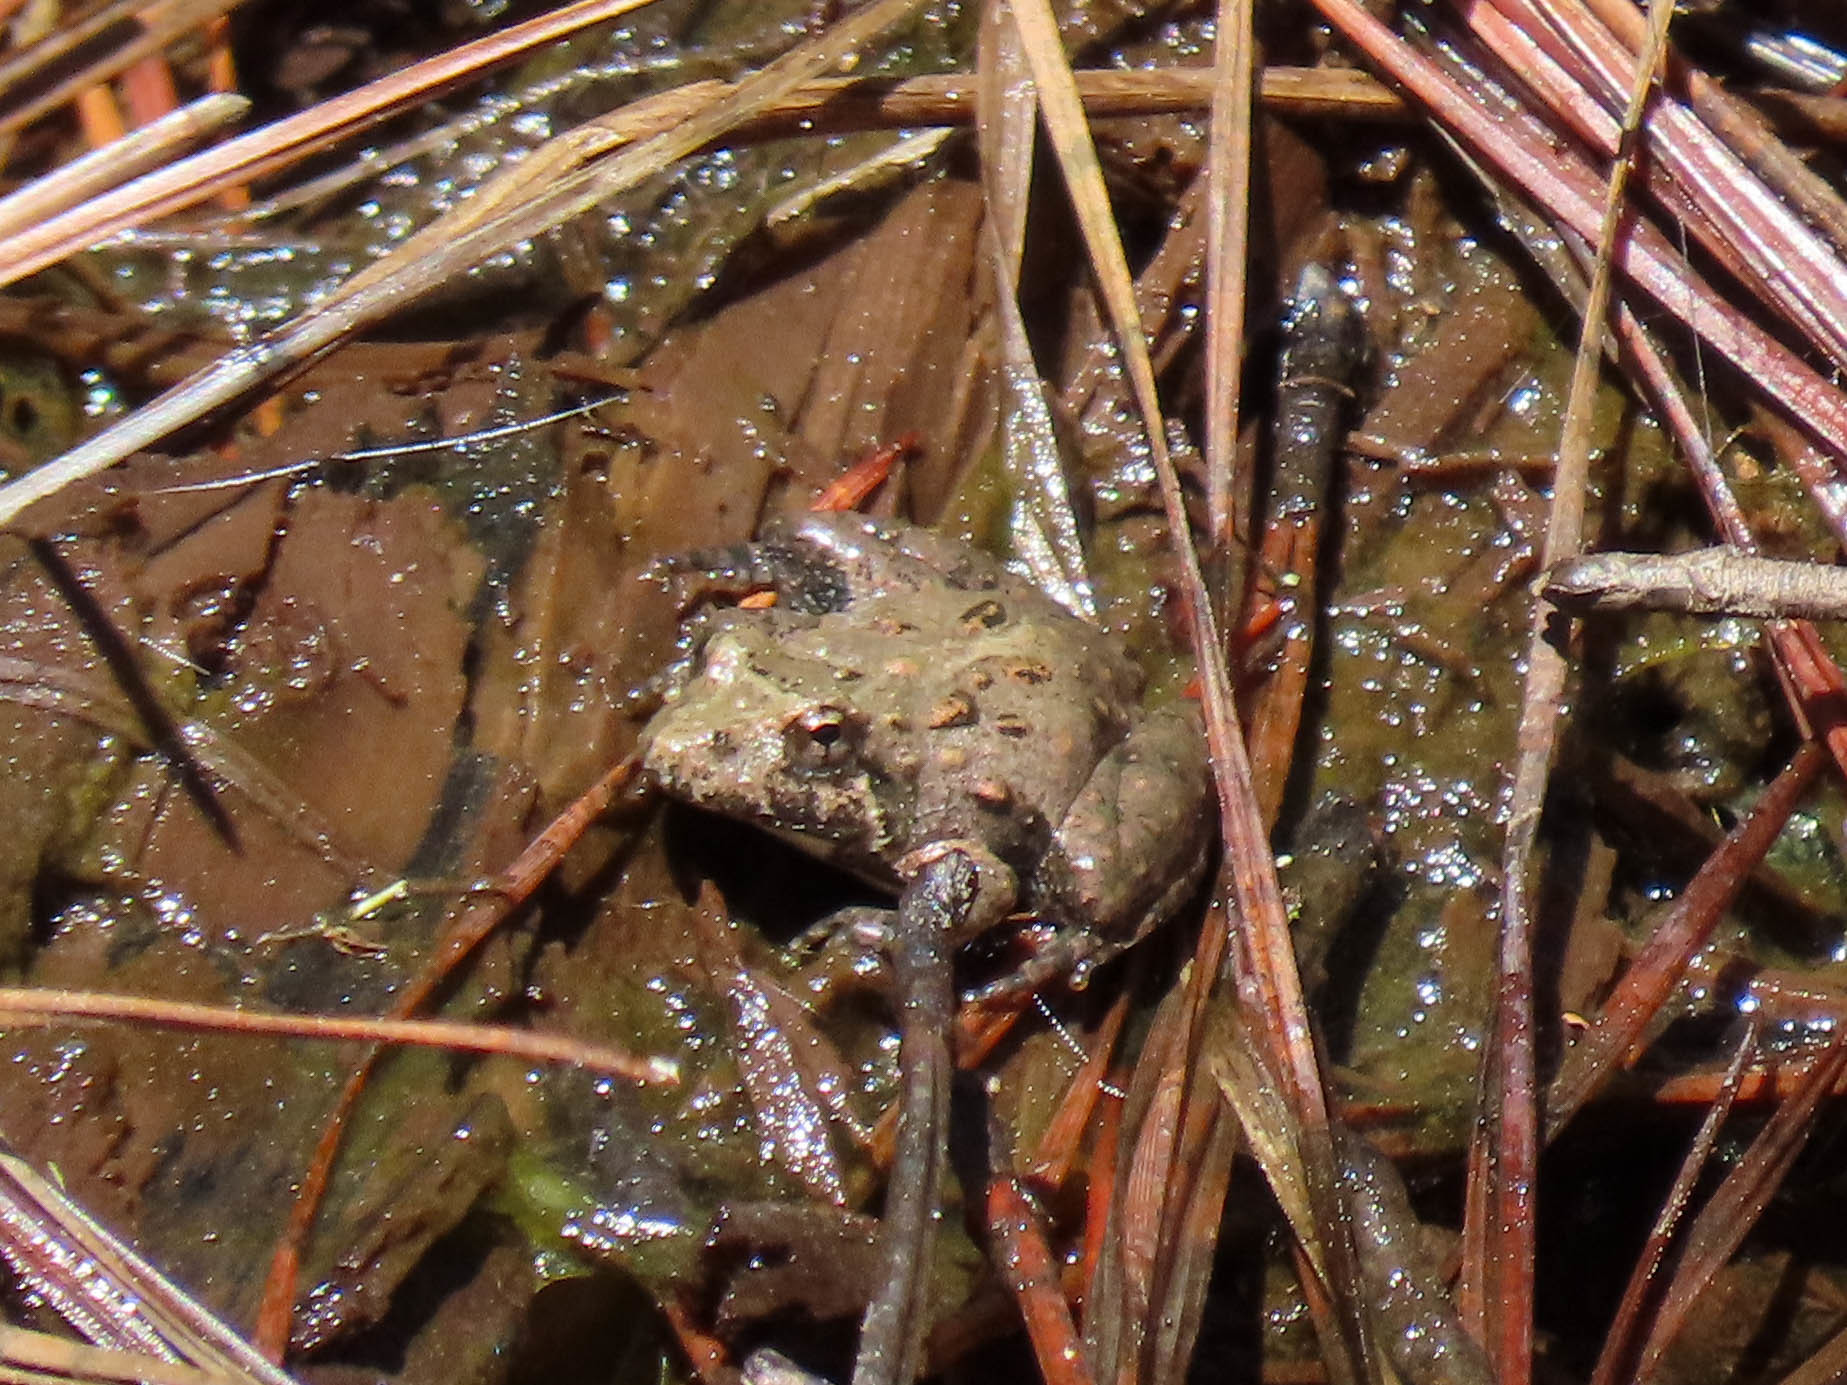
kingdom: Animalia
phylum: Chordata
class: Amphibia
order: Anura
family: Hylidae
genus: Acris
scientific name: Acris crepitans
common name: Northern cricket frog
